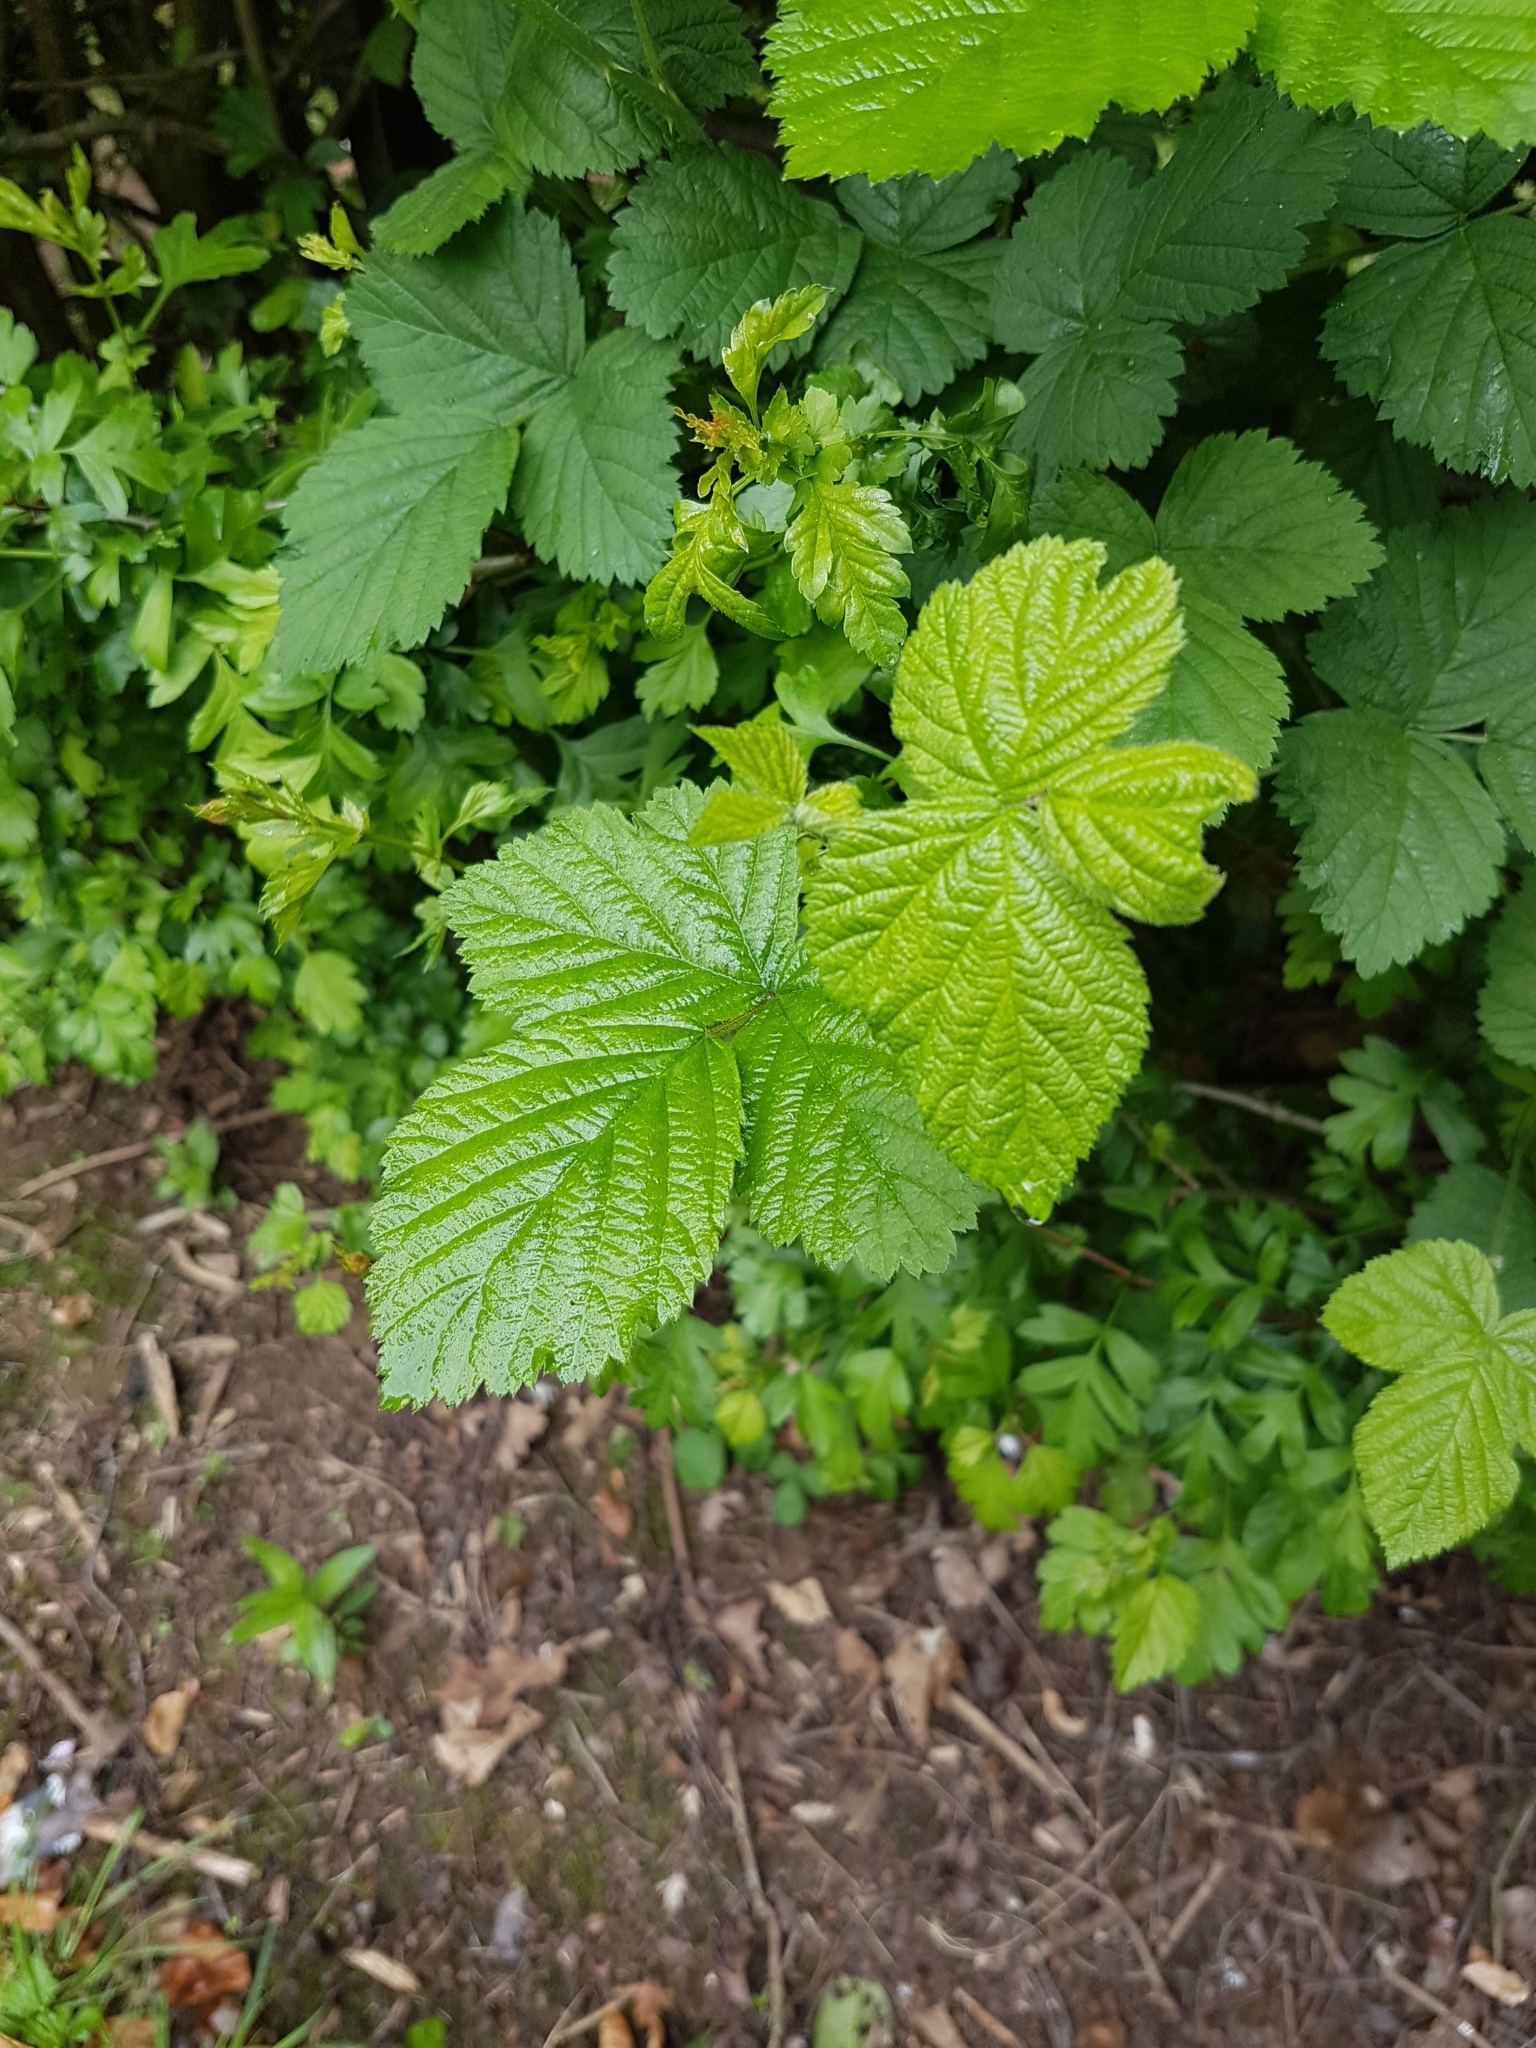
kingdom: Plantae
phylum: Tracheophyta
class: Magnoliopsida
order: Rosales
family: Rosaceae
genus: Rubus
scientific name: Rubus
